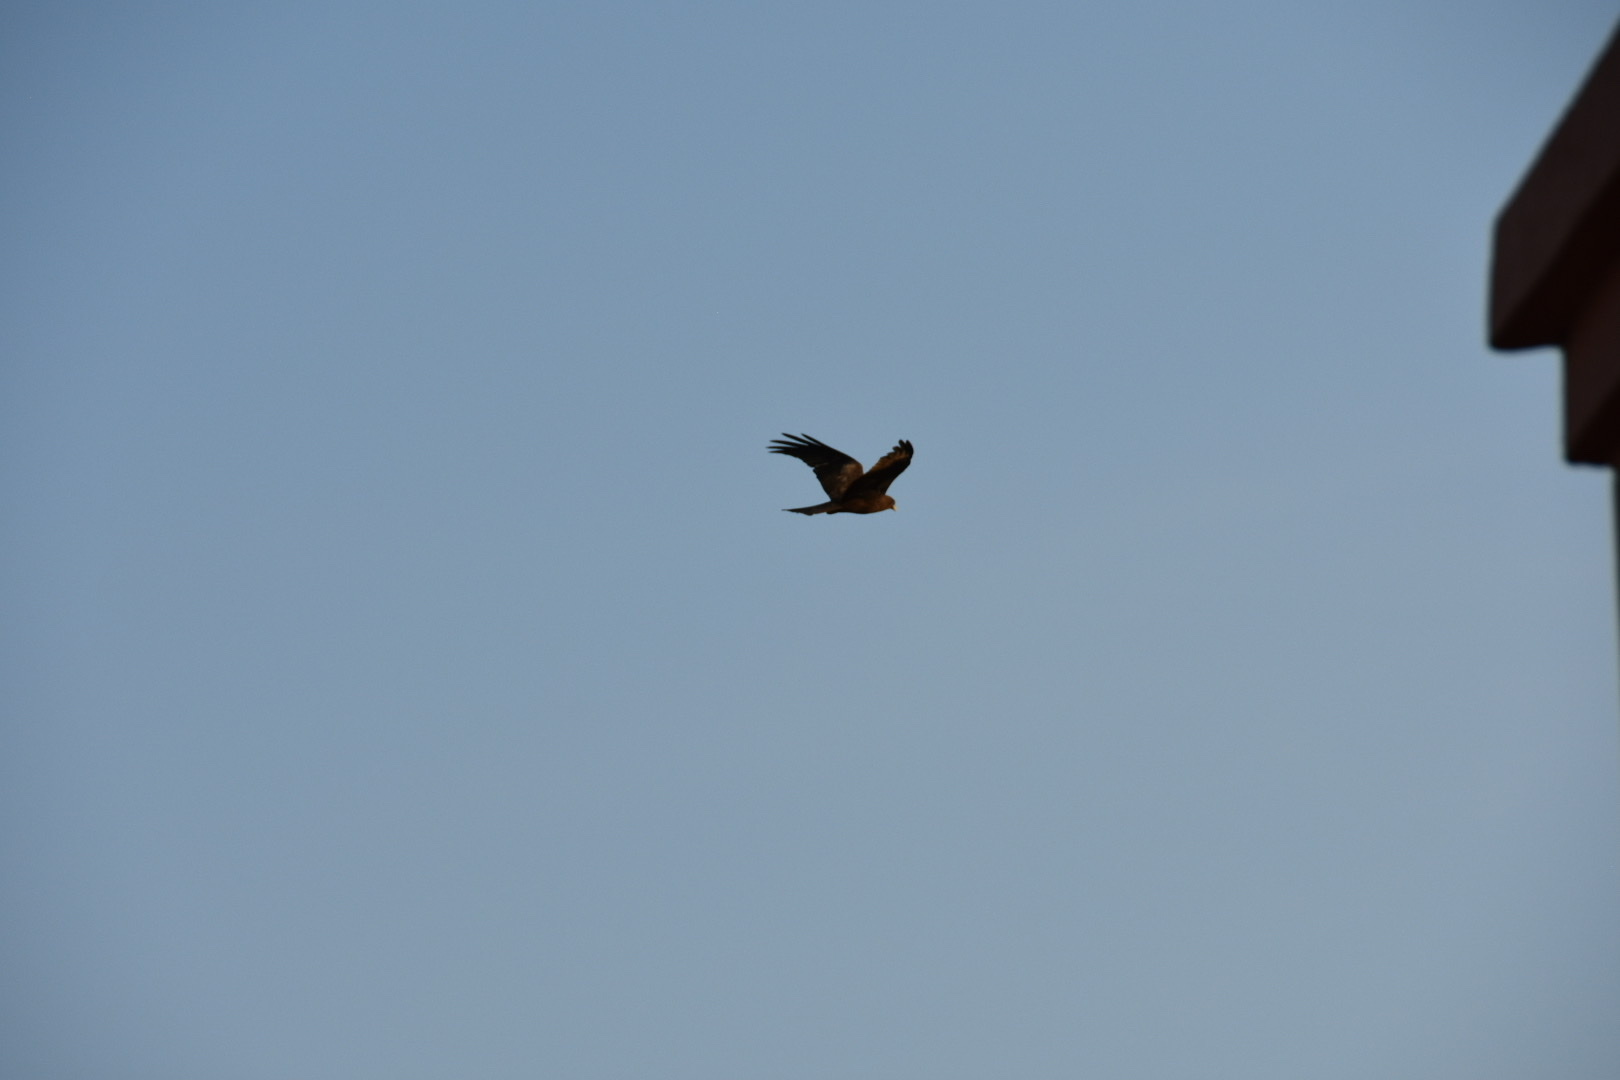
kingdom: Animalia
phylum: Chordata
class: Aves
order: Accipitriformes
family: Accipitridae
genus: Milvus
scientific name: Milvus migrans
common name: Black kite
